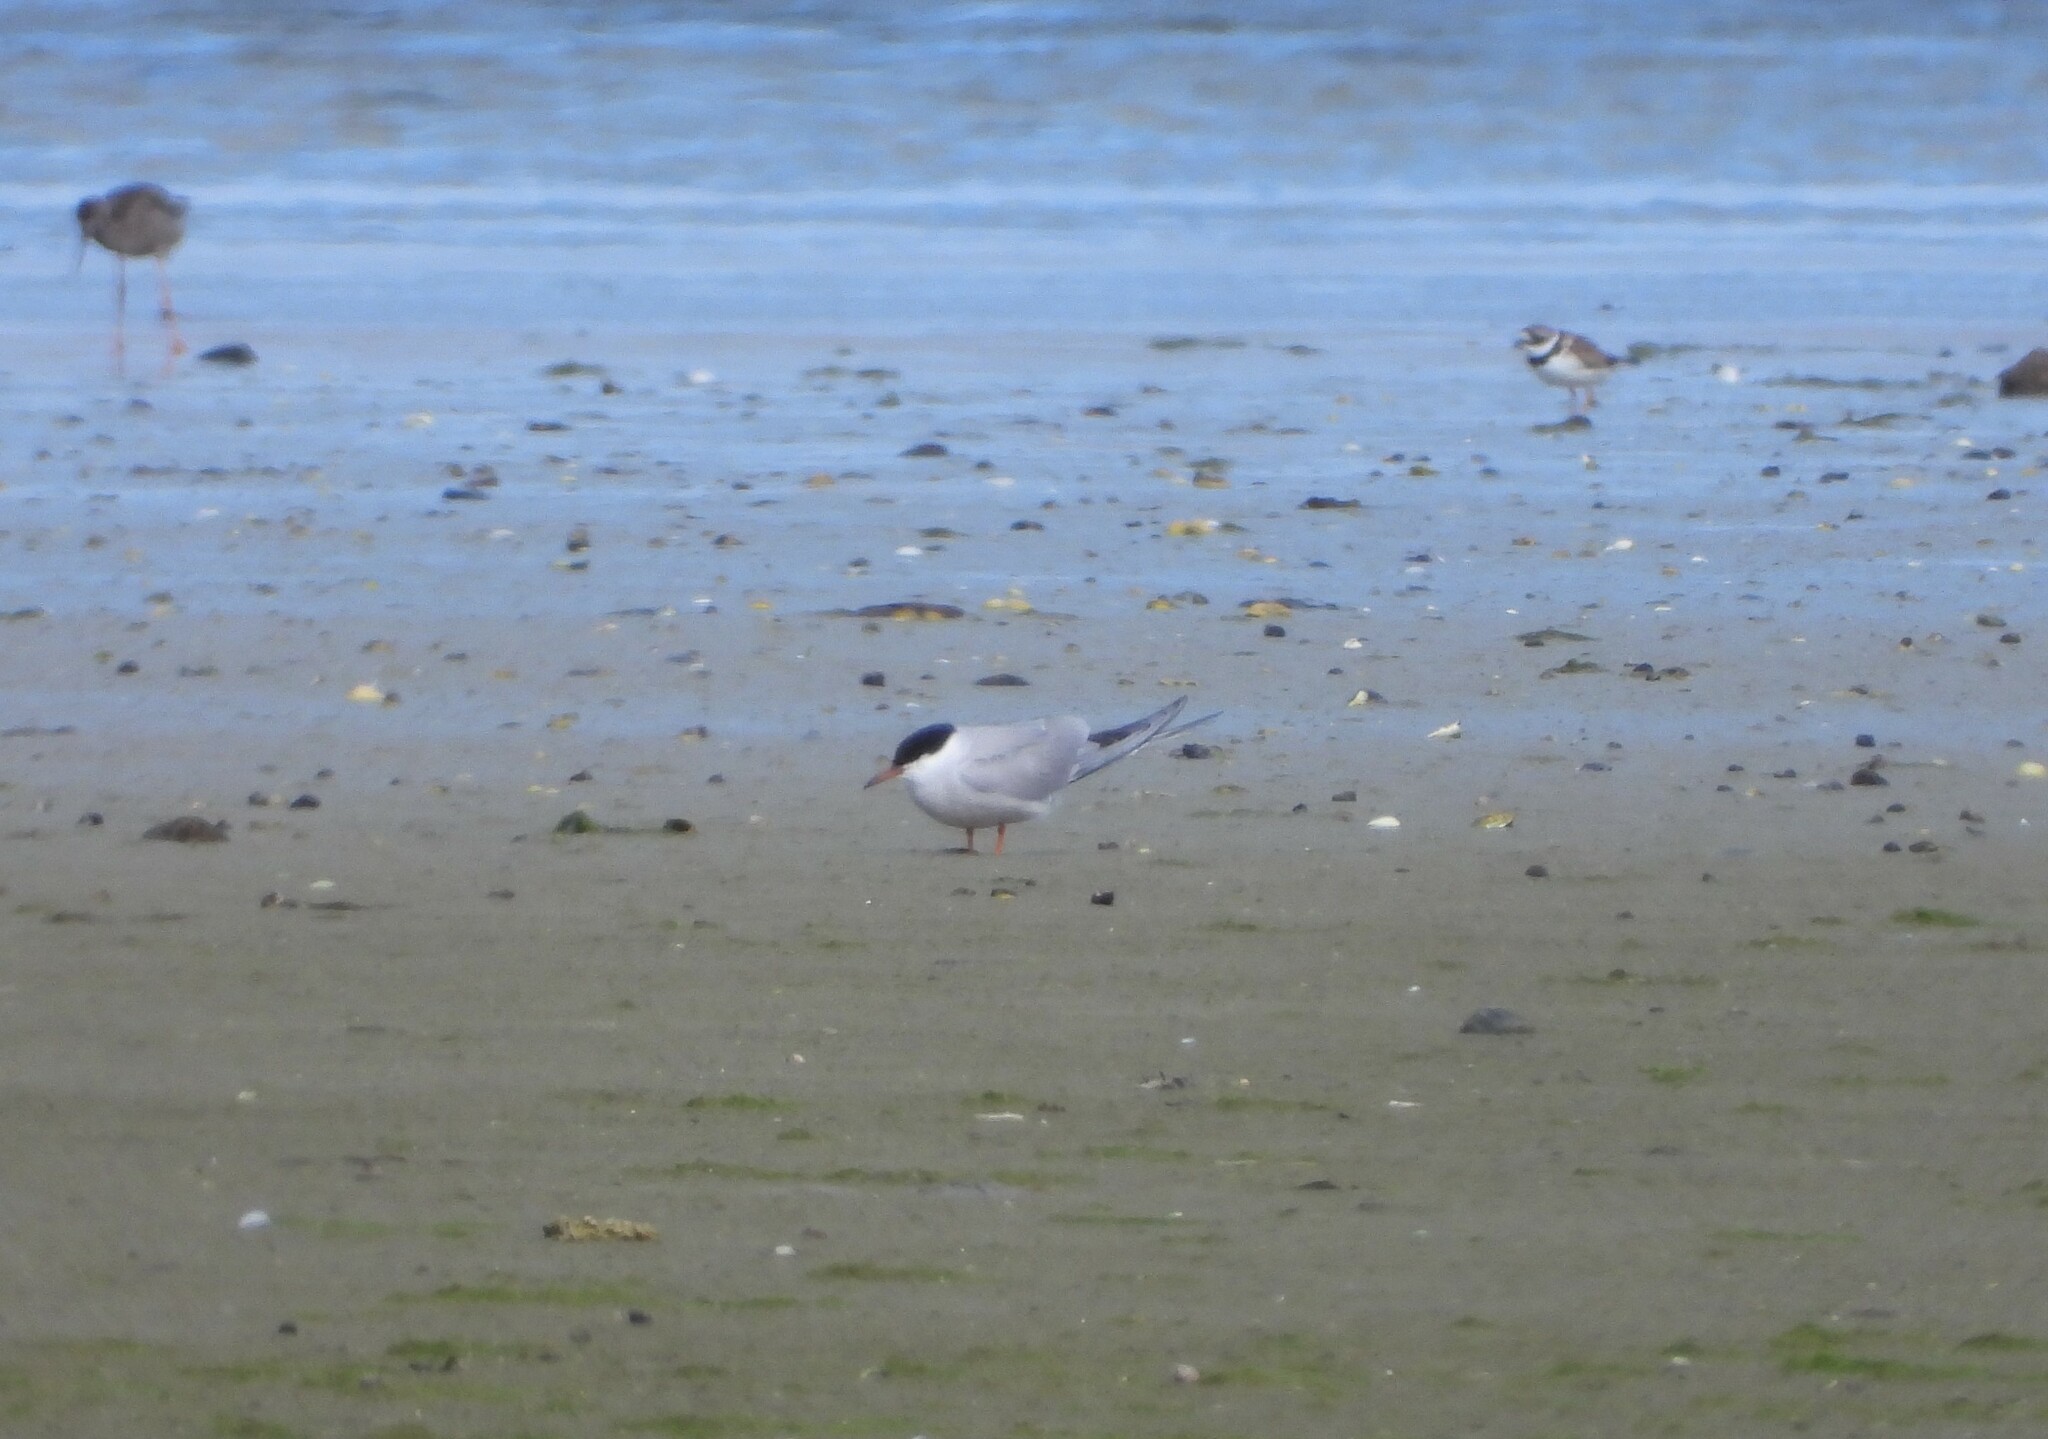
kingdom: Animalia
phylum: Chordata
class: Aves
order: Charadriiformes
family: Laridae
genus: Sterna
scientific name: Sterna hirundo
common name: Common tern
